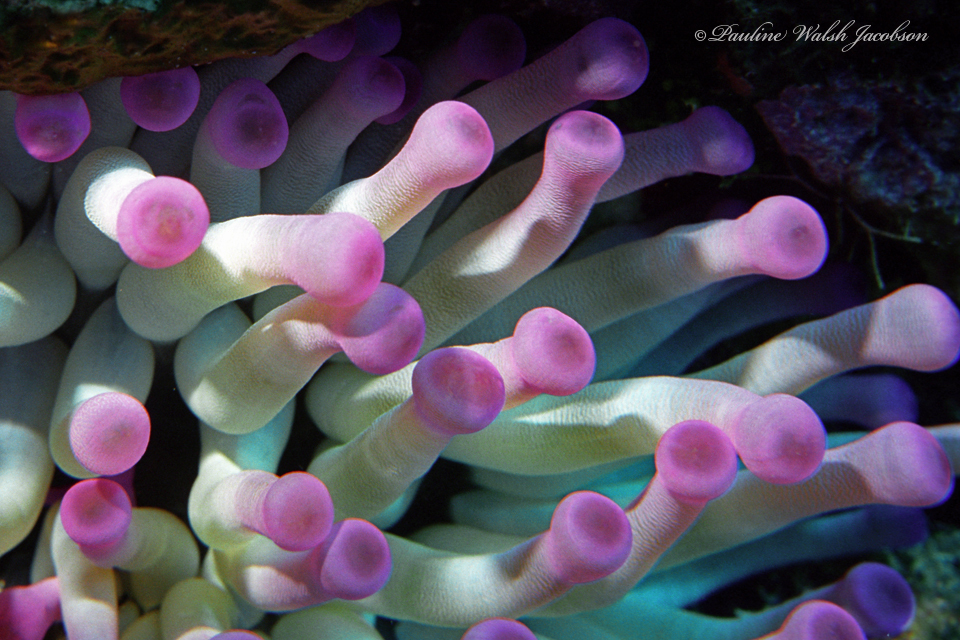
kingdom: Animalia
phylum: Cnidaria
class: Anthozoa
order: Actiniaria
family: Actiniidae
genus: Condylactis
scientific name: Condylactis gigantea
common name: Giant caribbean anemone
